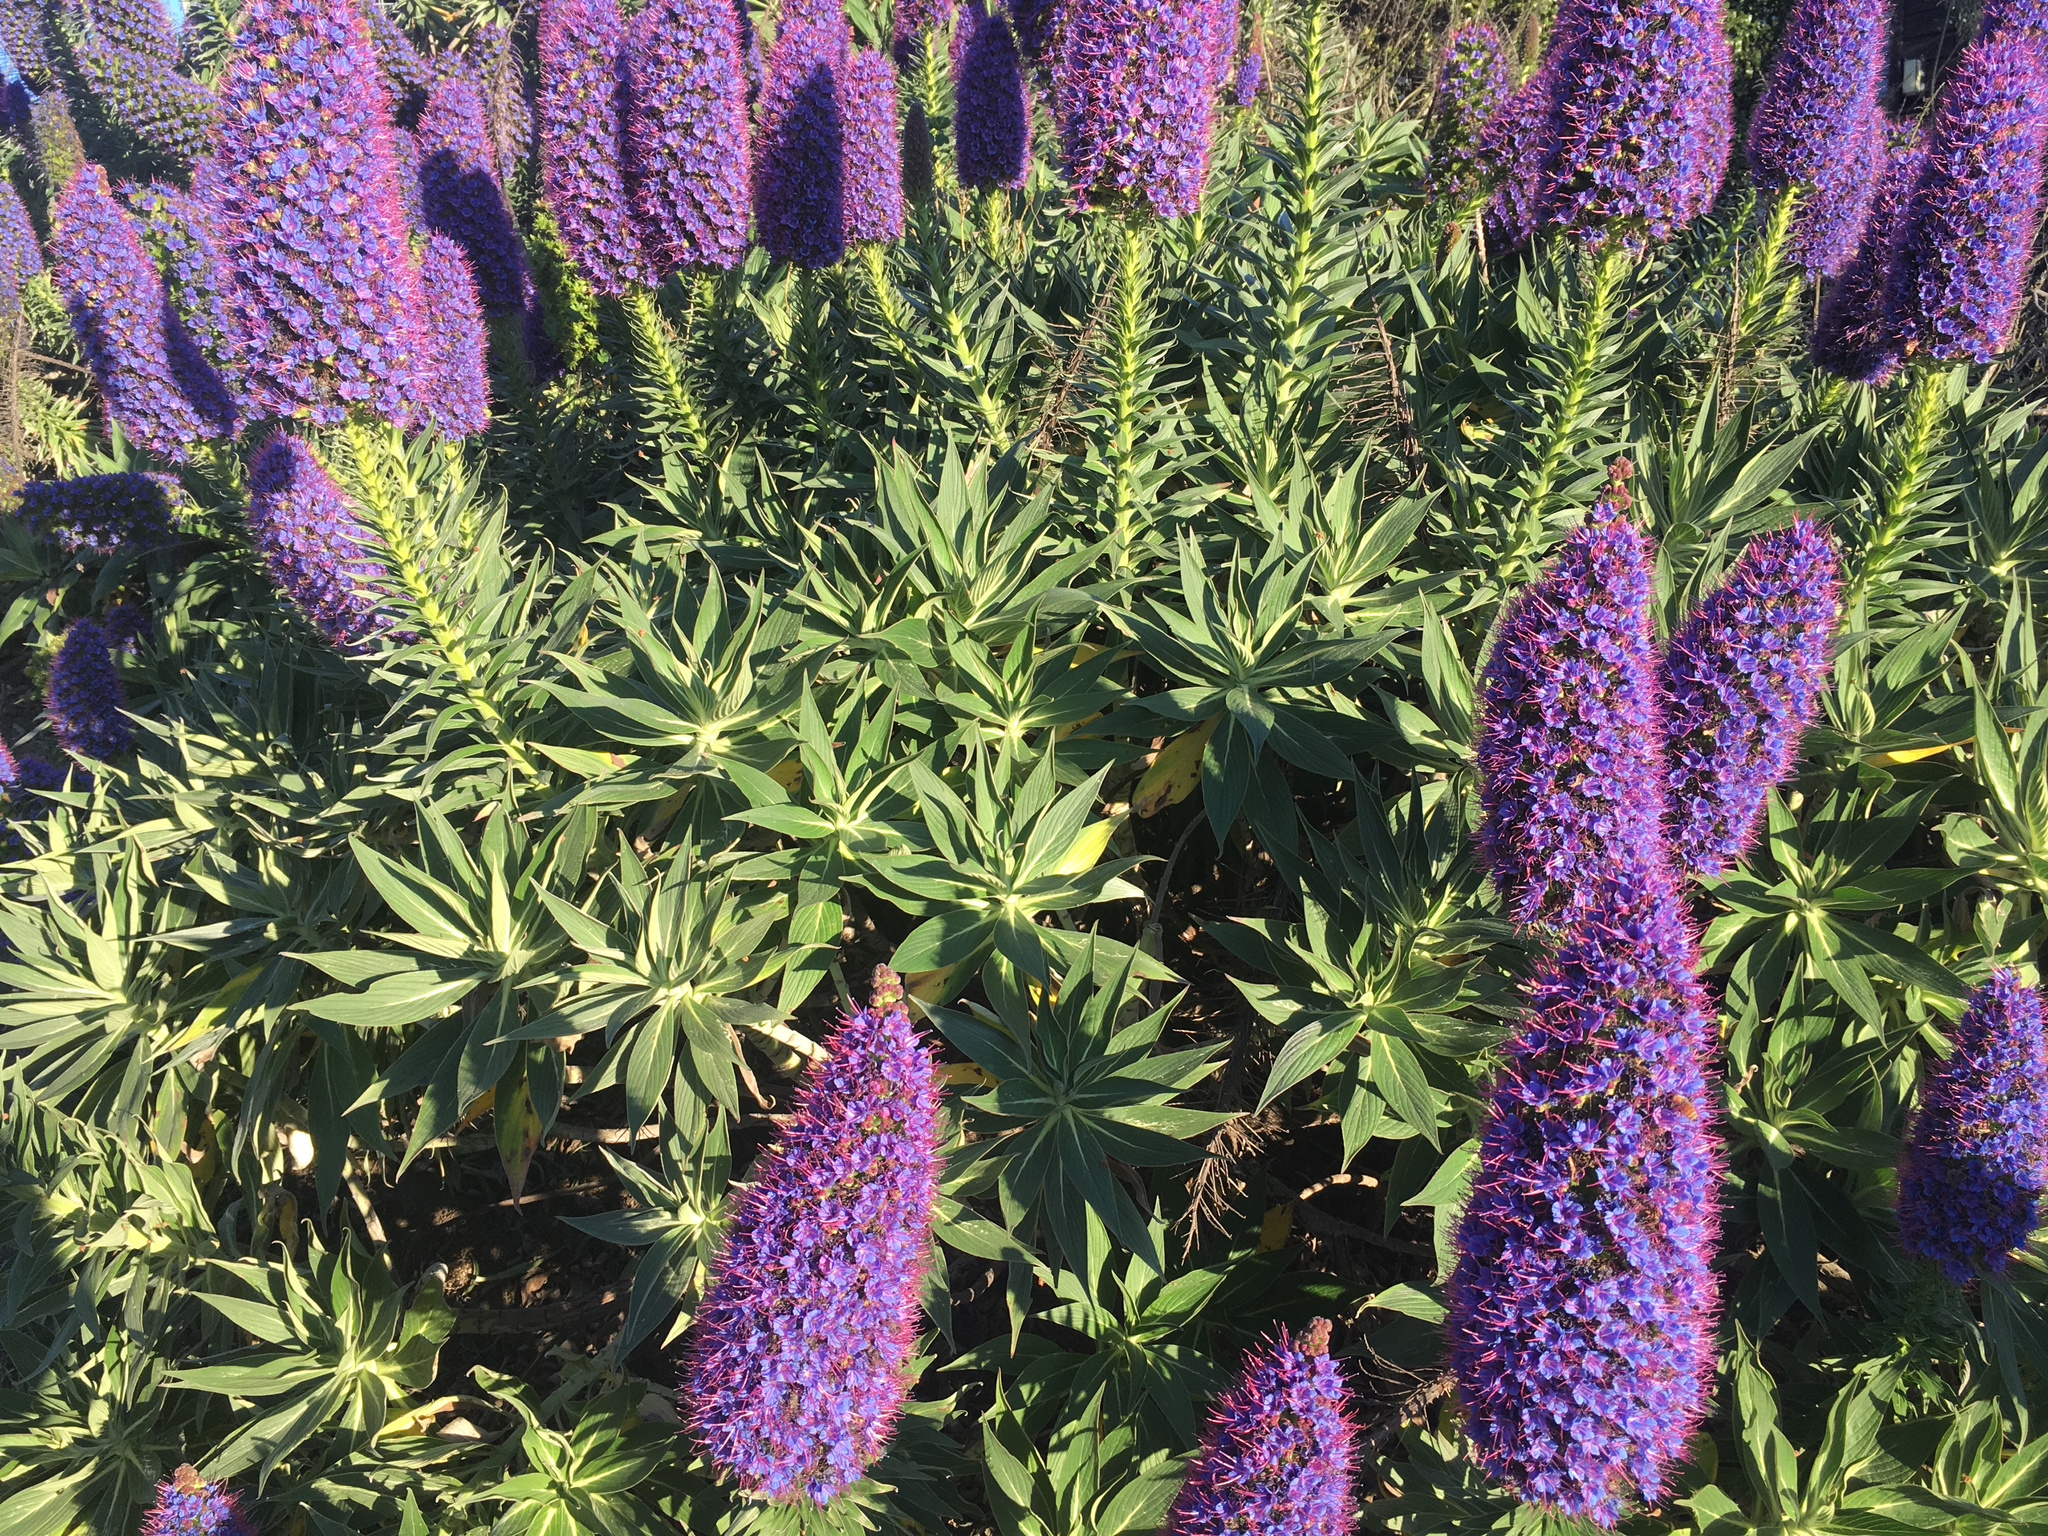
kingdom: Plantae
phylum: Tracheophyta
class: Magnoliopsida
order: Boraginales
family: Boraginaceae
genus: Echium
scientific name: Echium candicans
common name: Pride of madeira
